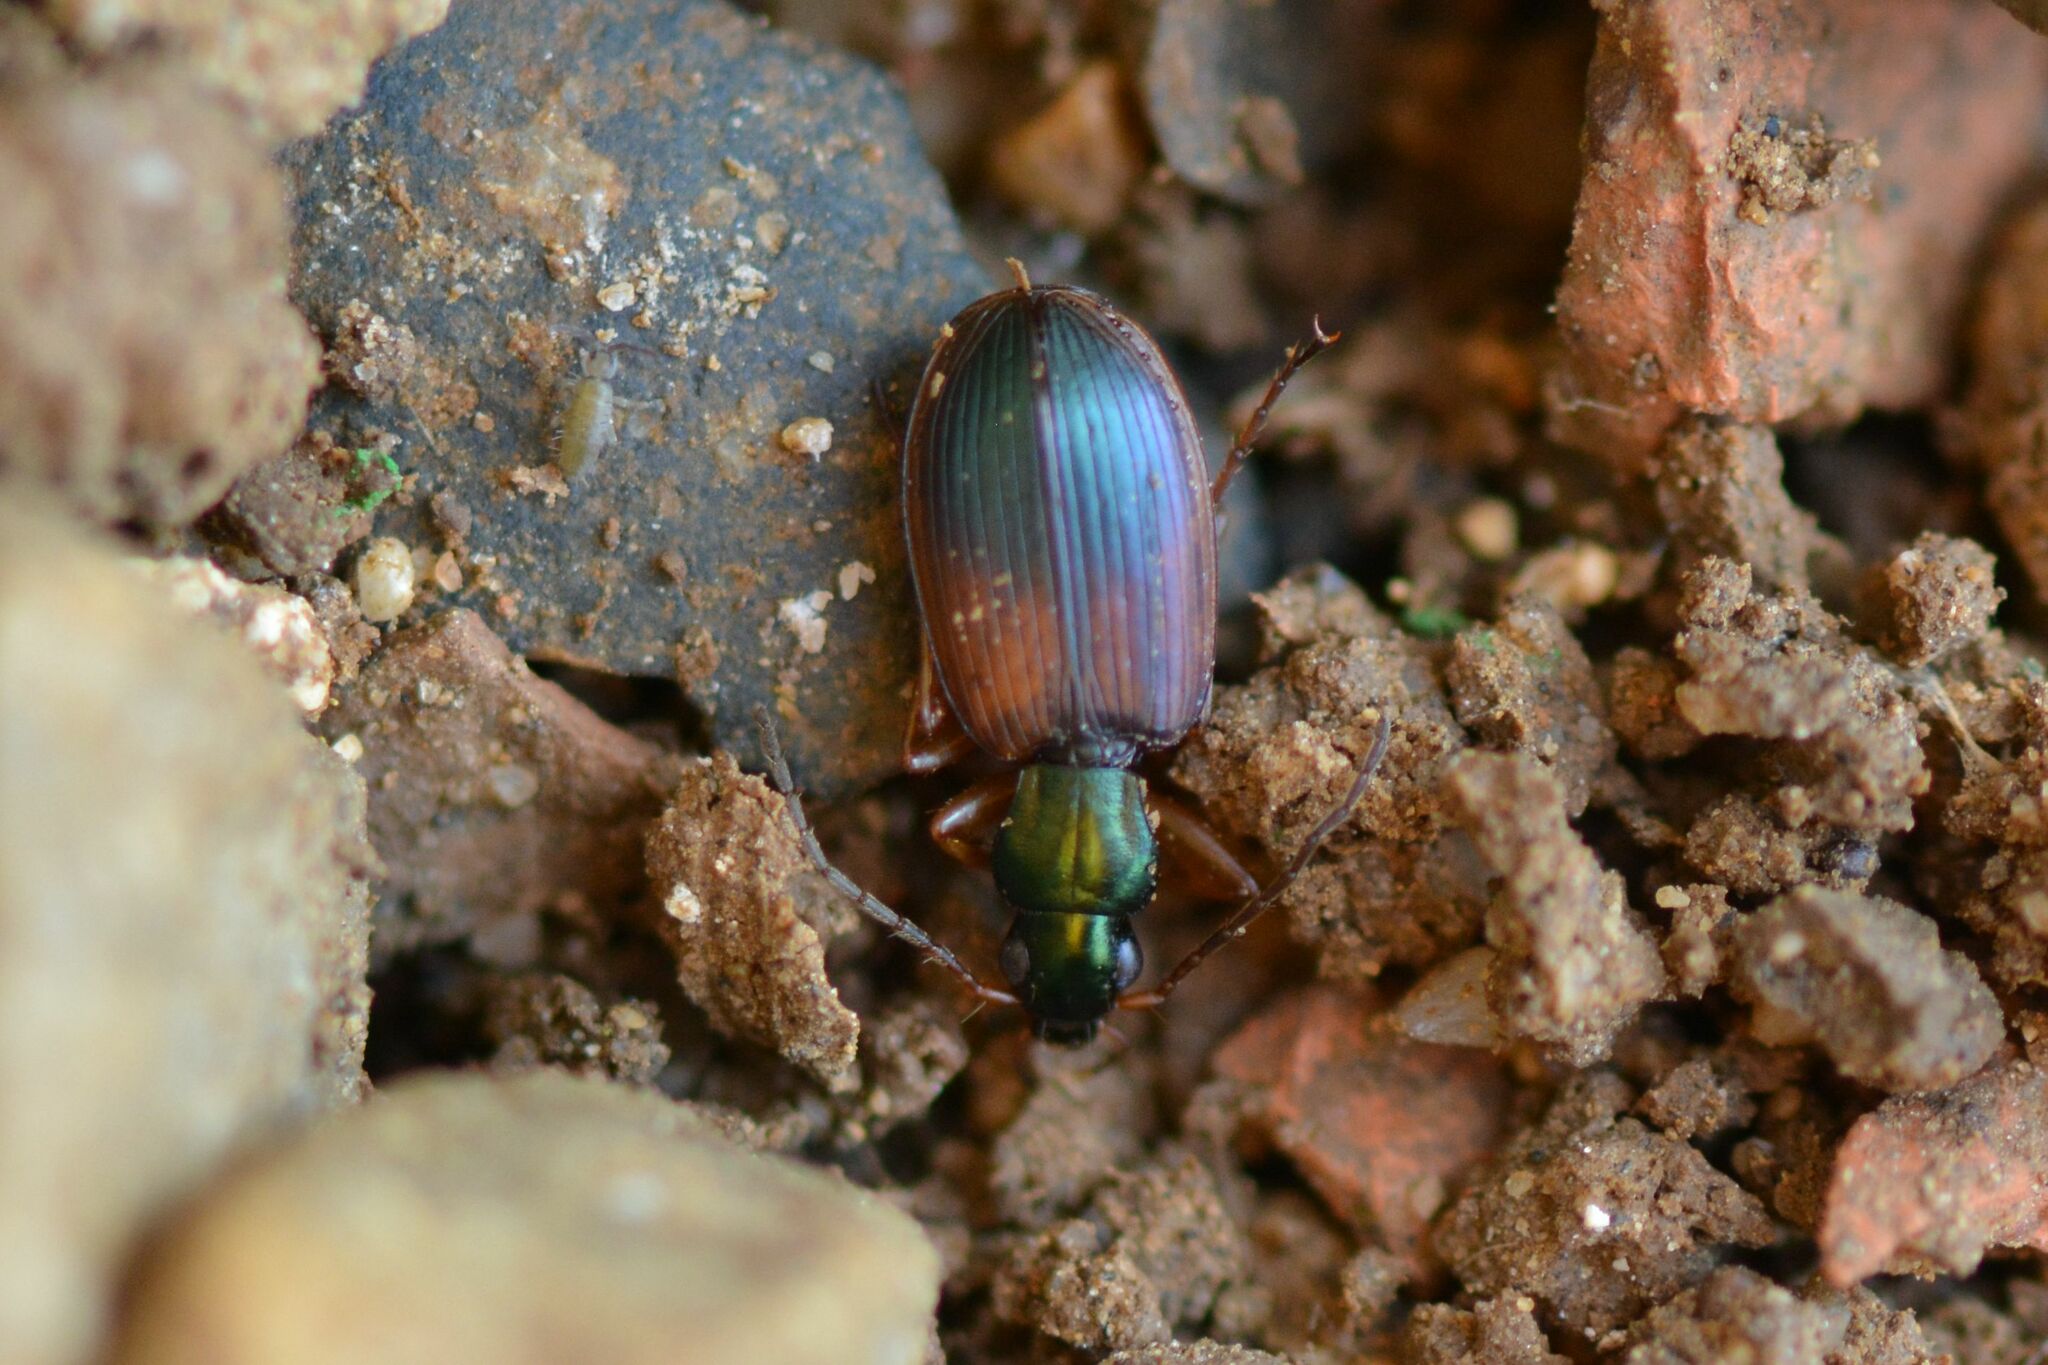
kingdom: Animalia
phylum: Arthropoda
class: Insecta
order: Coleoptera
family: Carabidae
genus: Anchomenus
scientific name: Anchomenus dorsalis
